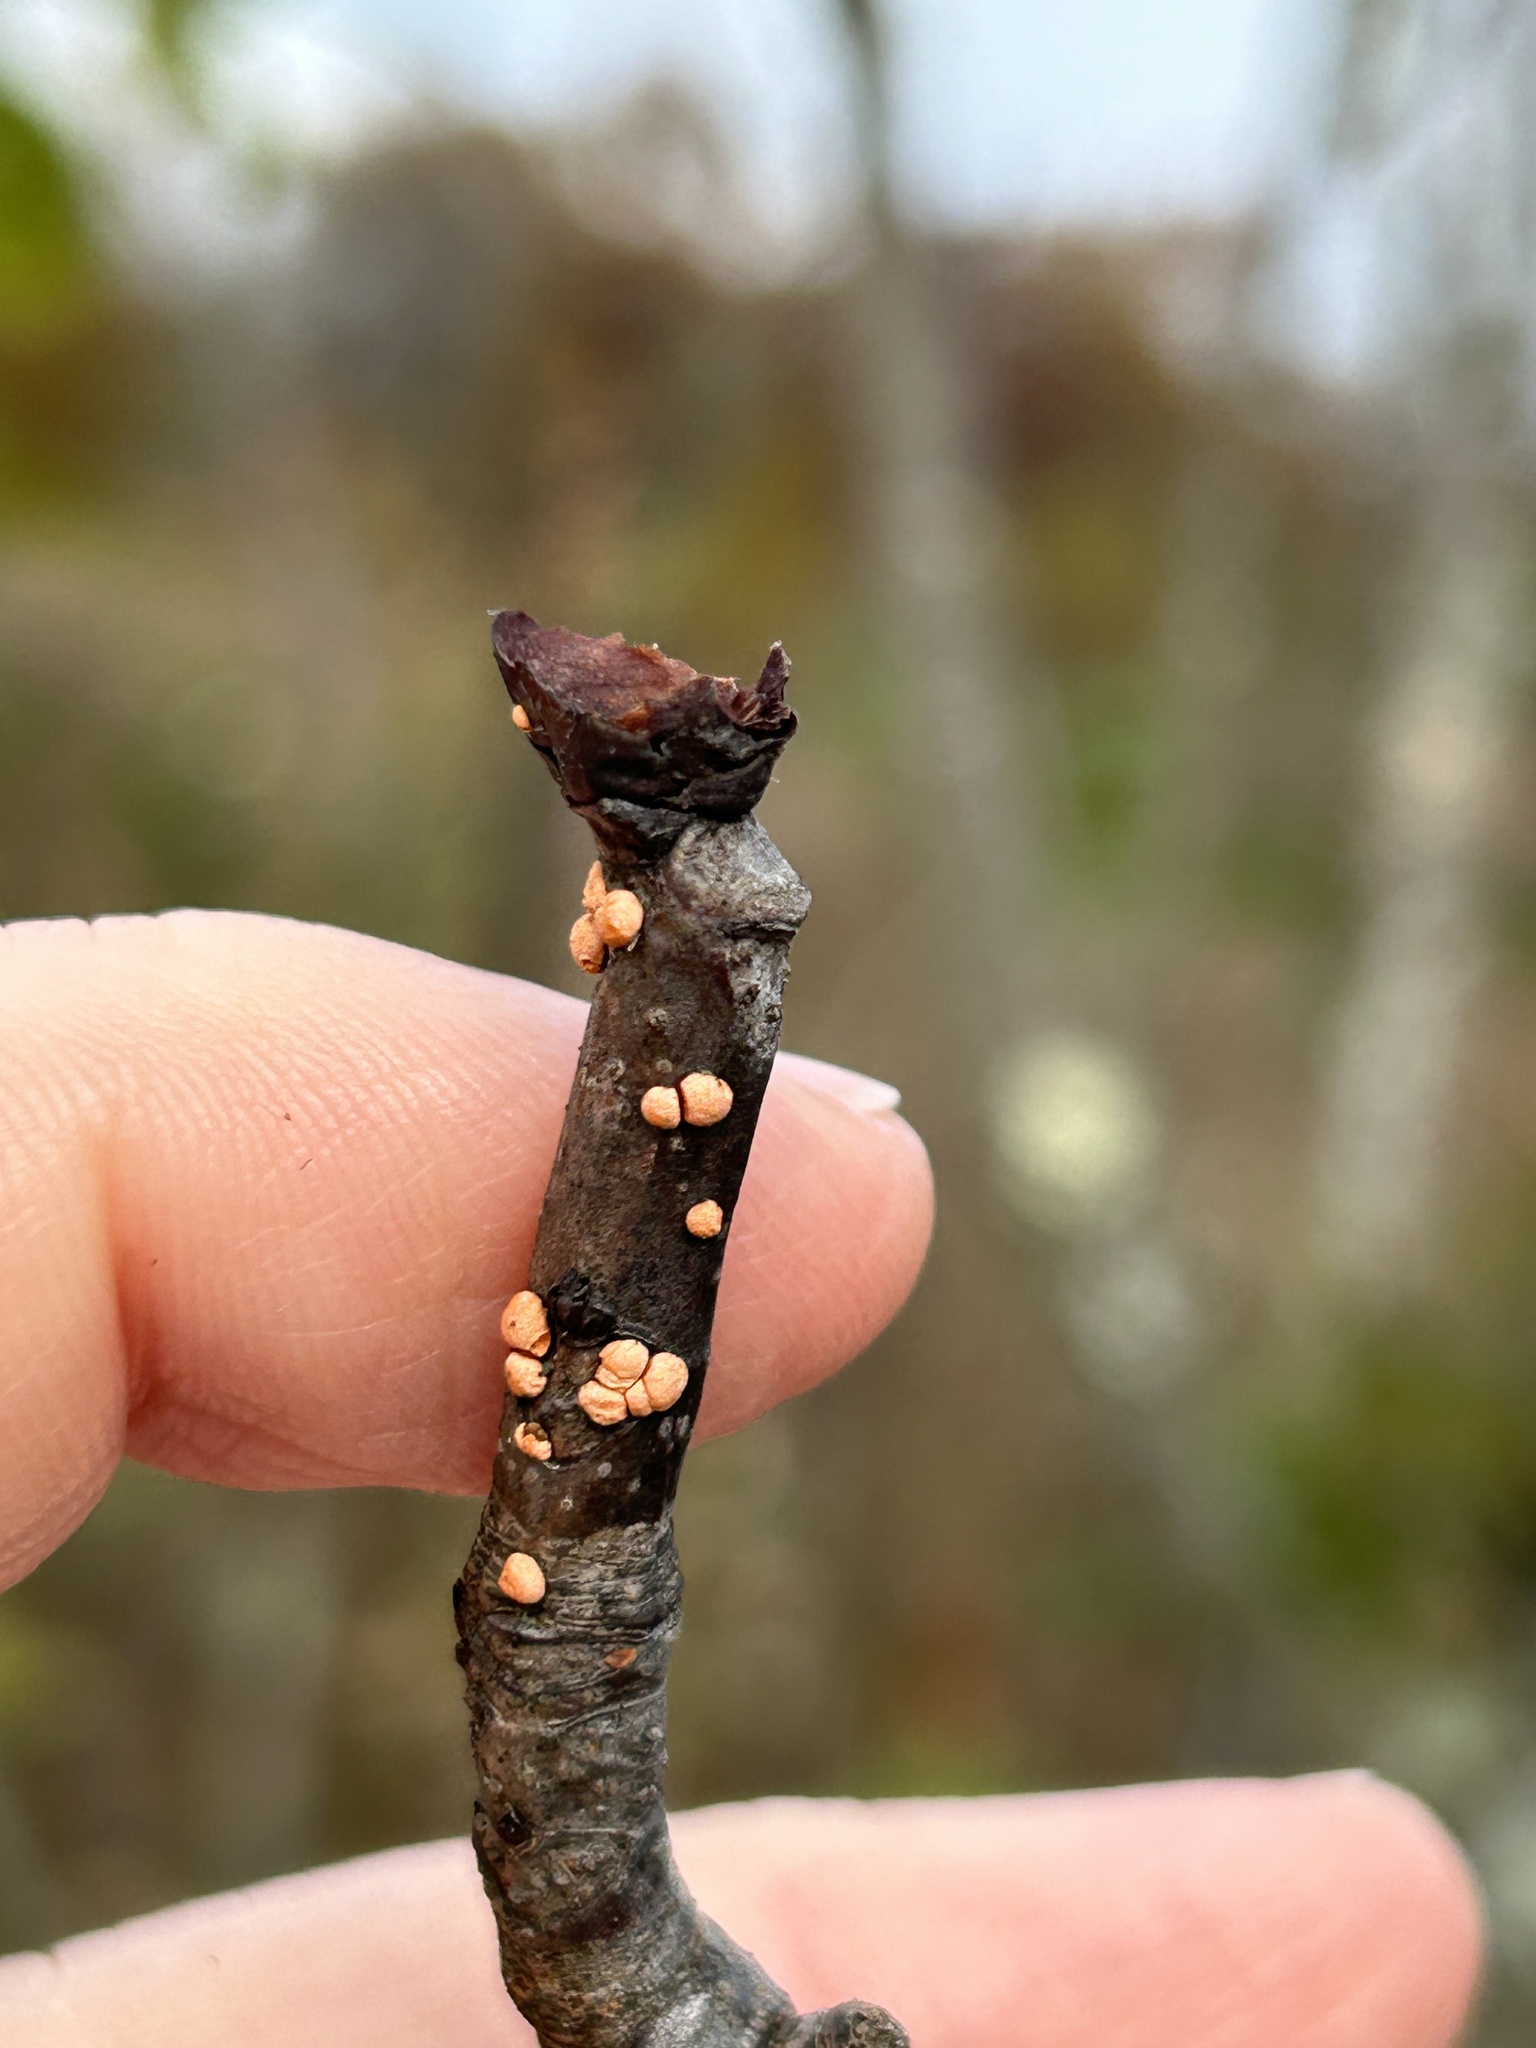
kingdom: Fungi
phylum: Ascomycota
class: Sordariomycetes
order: Hypocreales
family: Nectriaceae
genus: Nectria
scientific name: Nectria cinnabarina
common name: Coral spot
